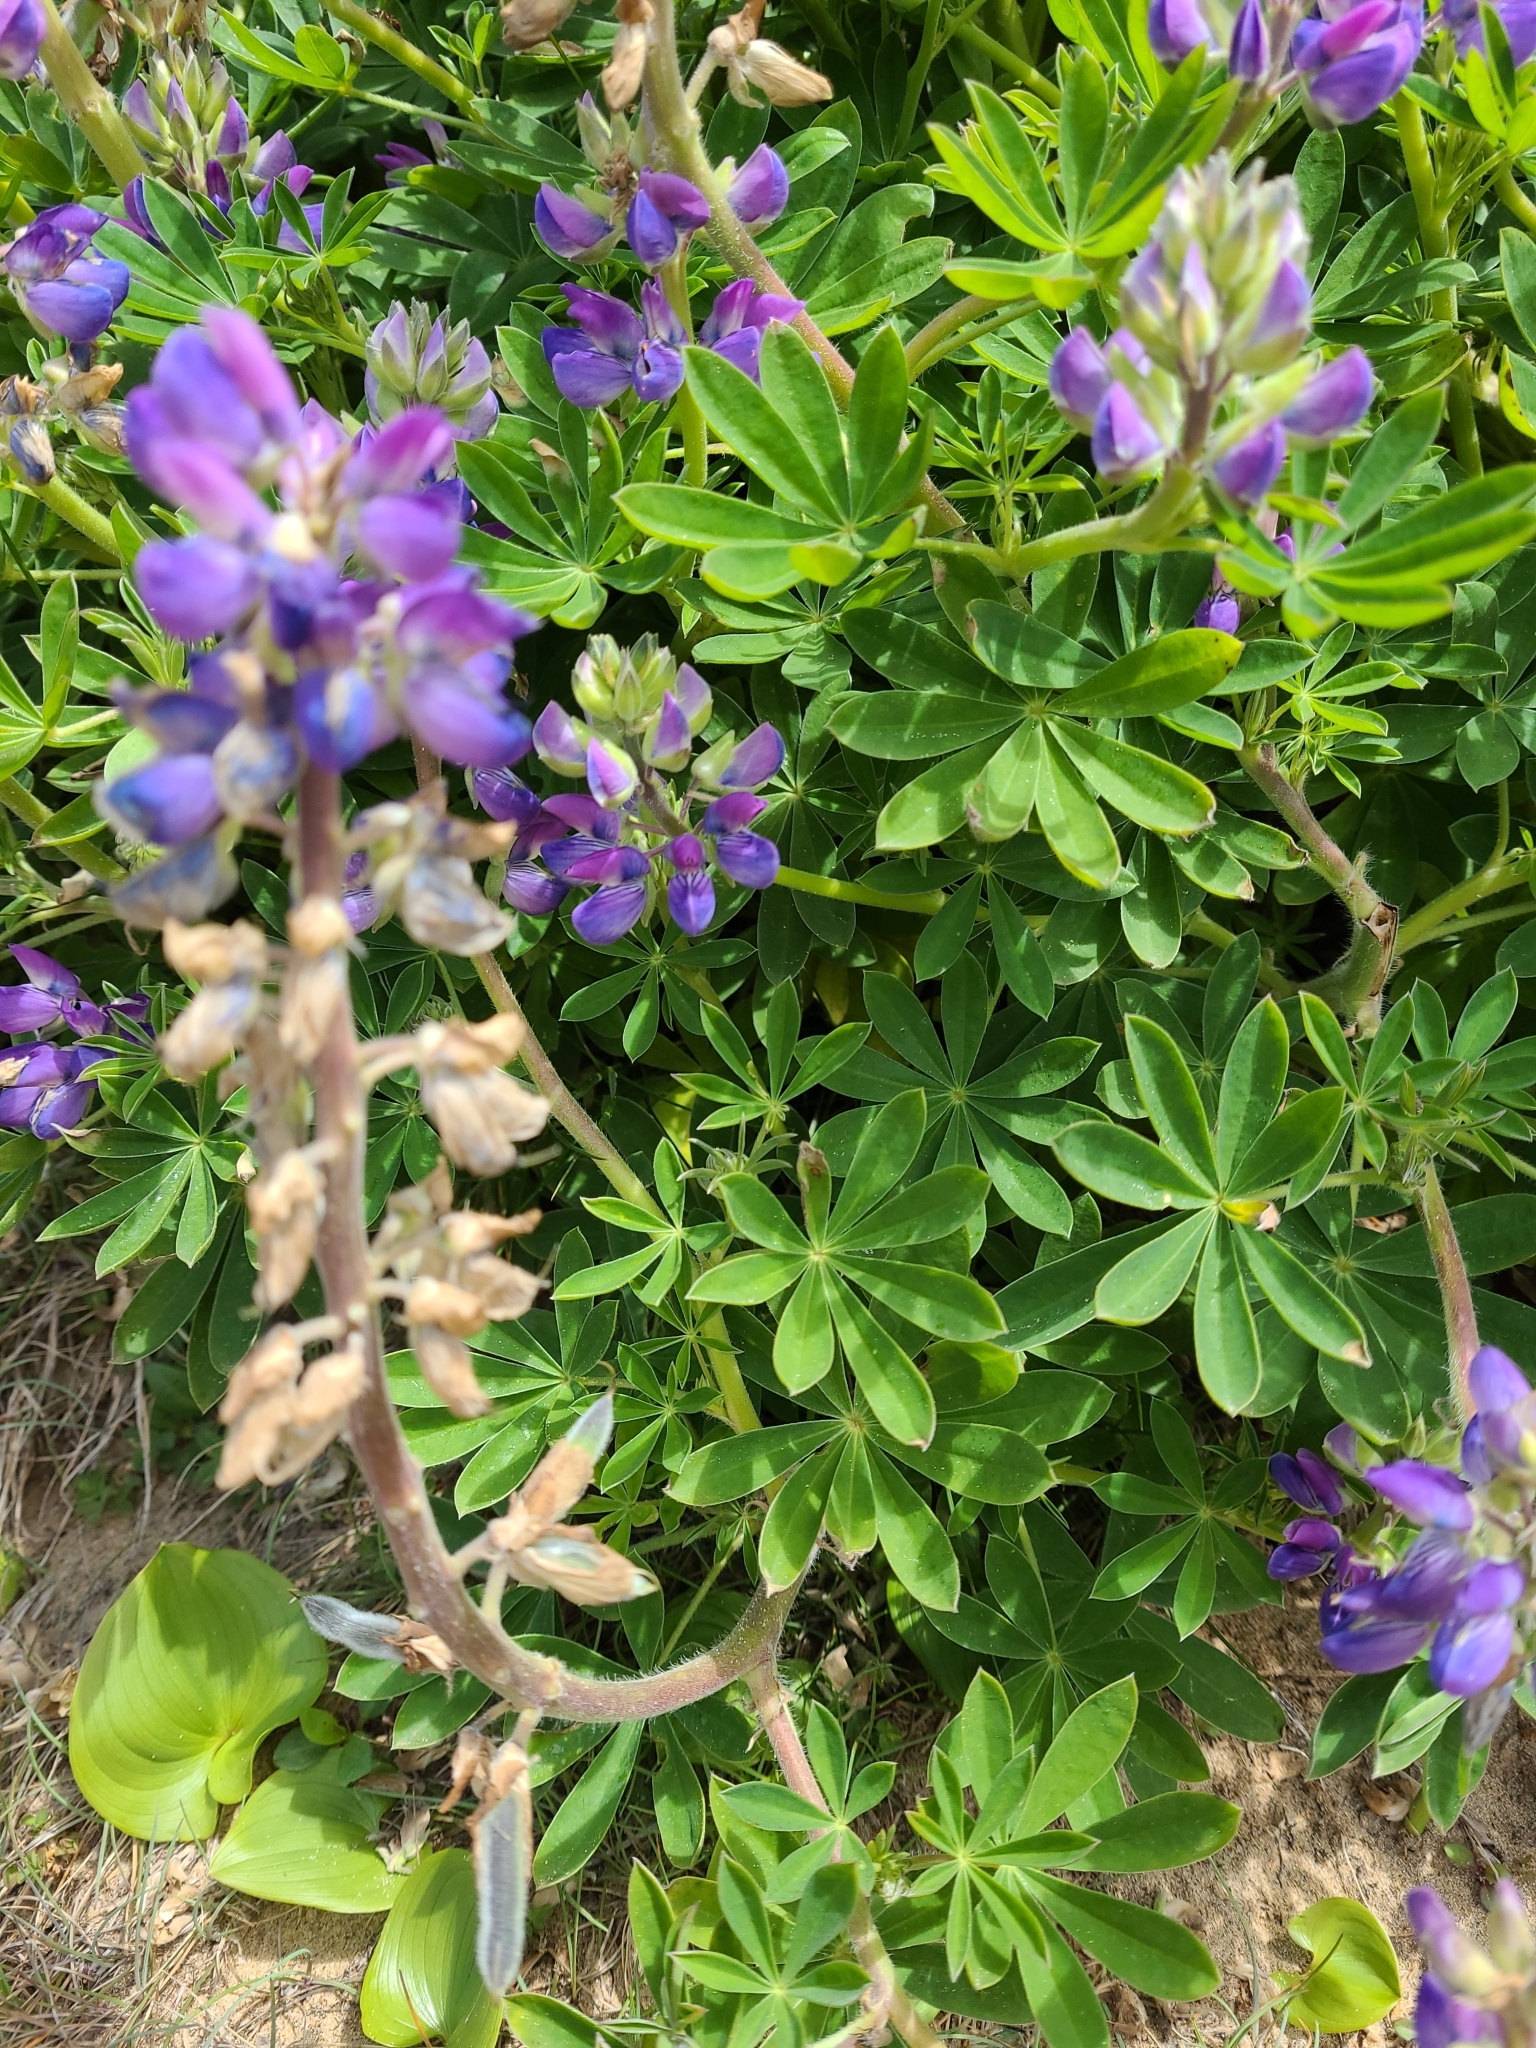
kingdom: Plantae
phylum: Tracheophyta
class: Magnoliopsida
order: Fabales
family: Fabaceae
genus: Lupinus
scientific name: Lupinus littoralis
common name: Seashore lupine
